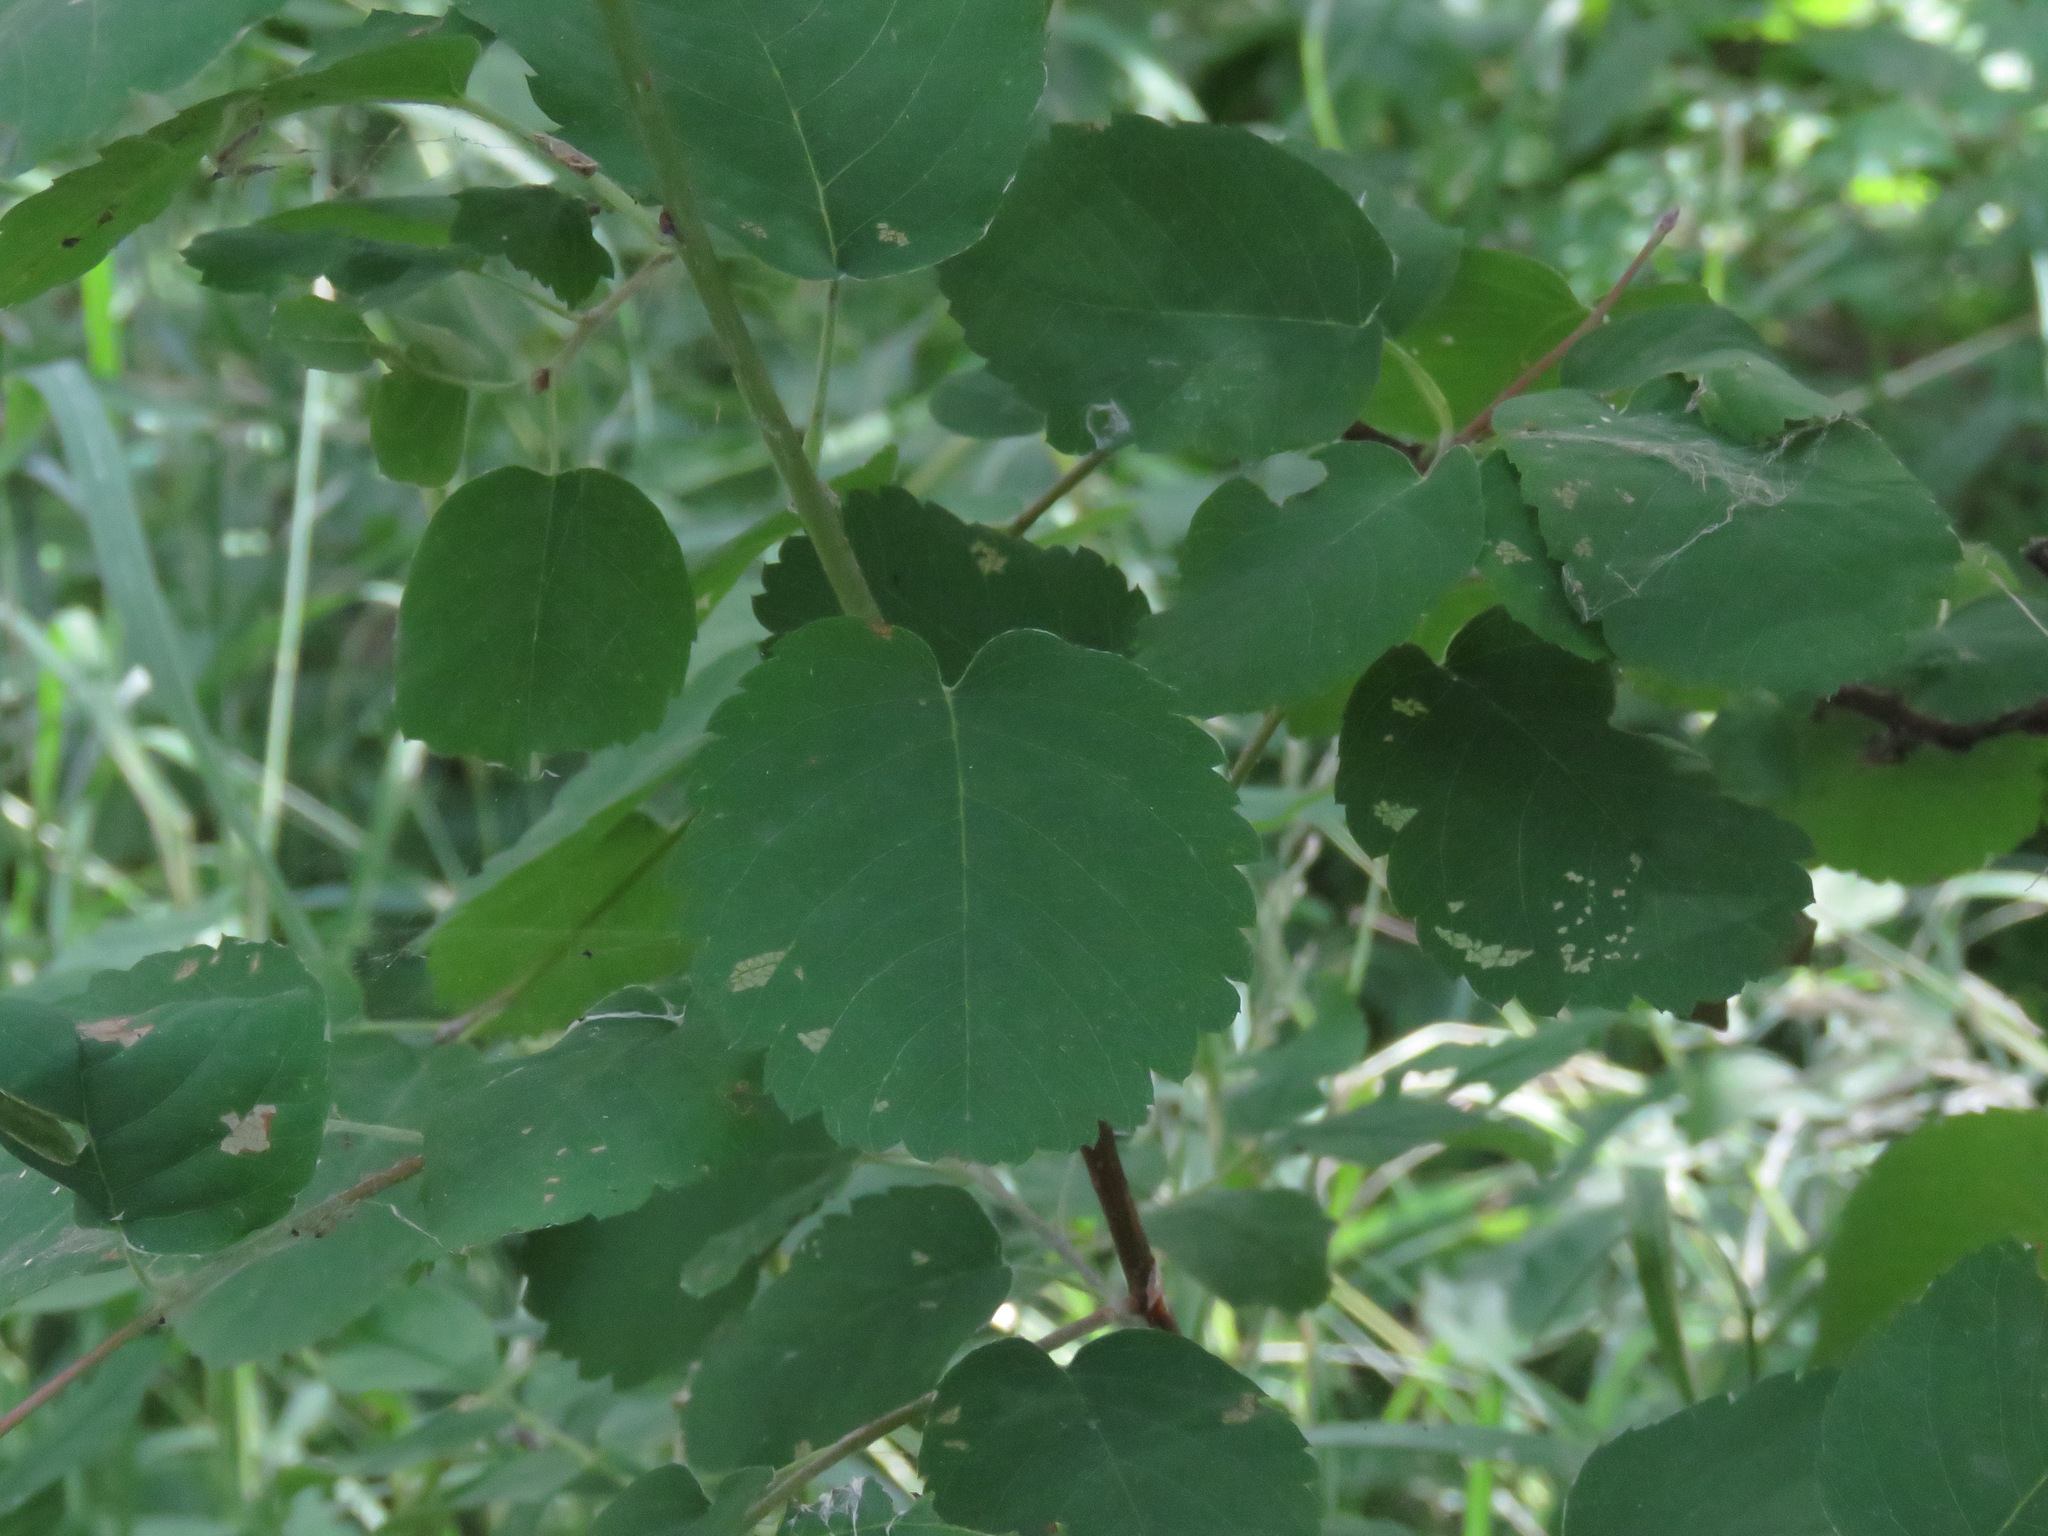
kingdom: Plantae
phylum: Tracheophyta
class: Magnoliopsida
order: Rosales
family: Rosaceae
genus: Amelanchier
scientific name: Amelanchier alnifolia
